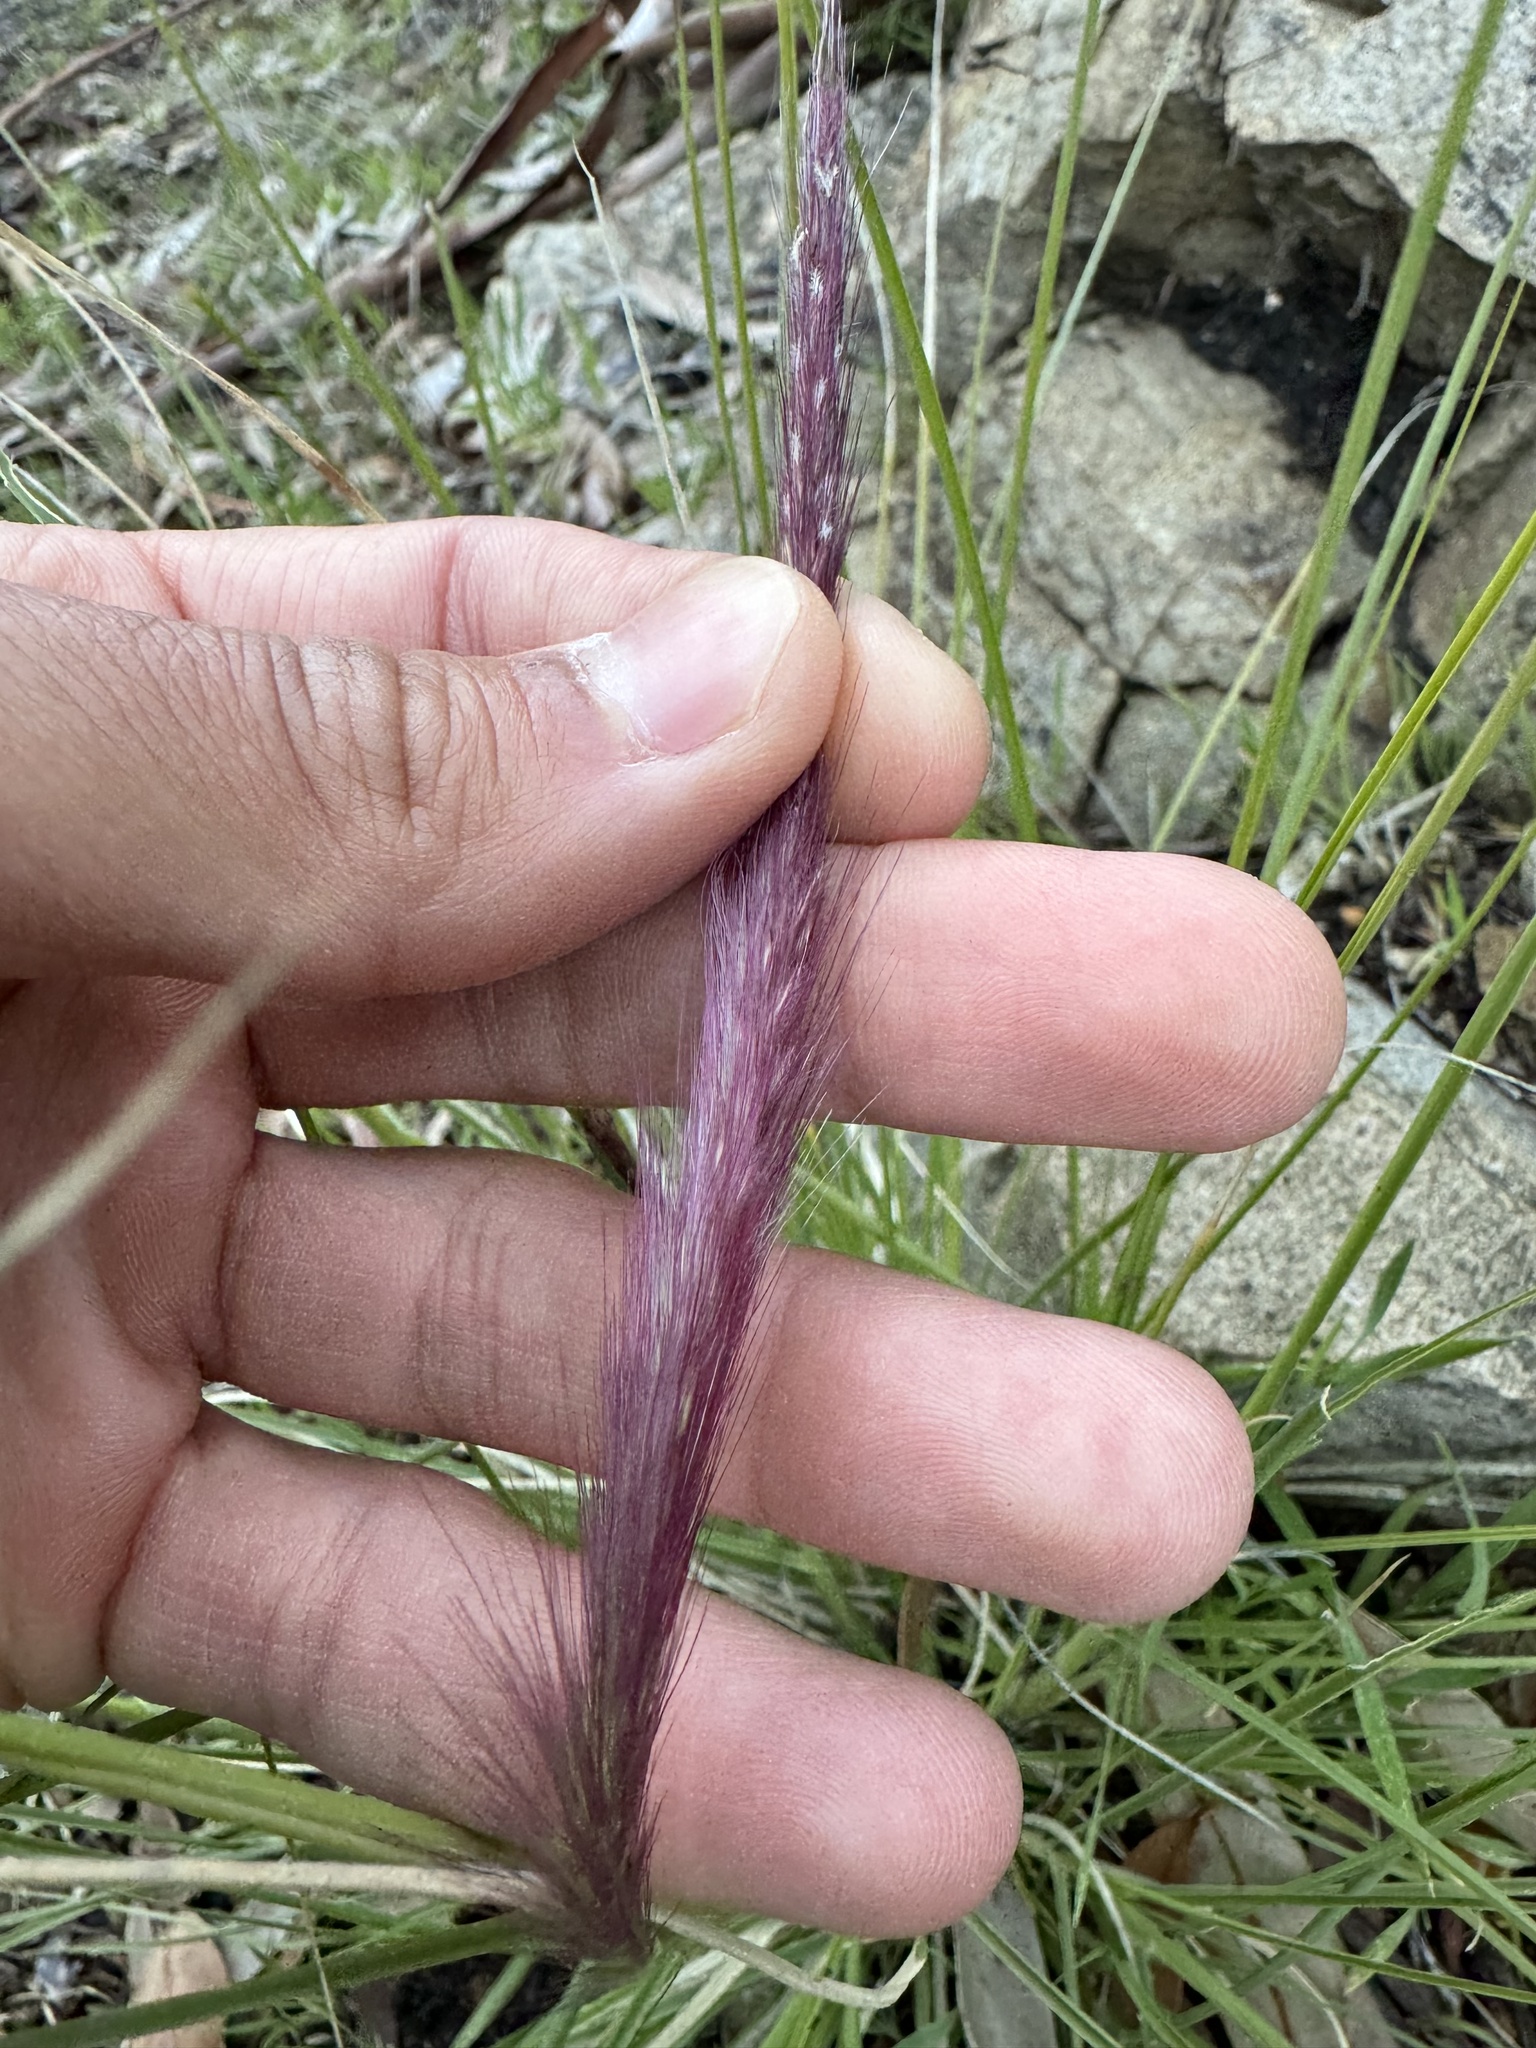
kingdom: Plantae
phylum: Tracheophyta
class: Liliopsida
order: Poales
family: Poaceae
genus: Cenchrus
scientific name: Cenchrus setaceus
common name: Crimson fountaingrass
